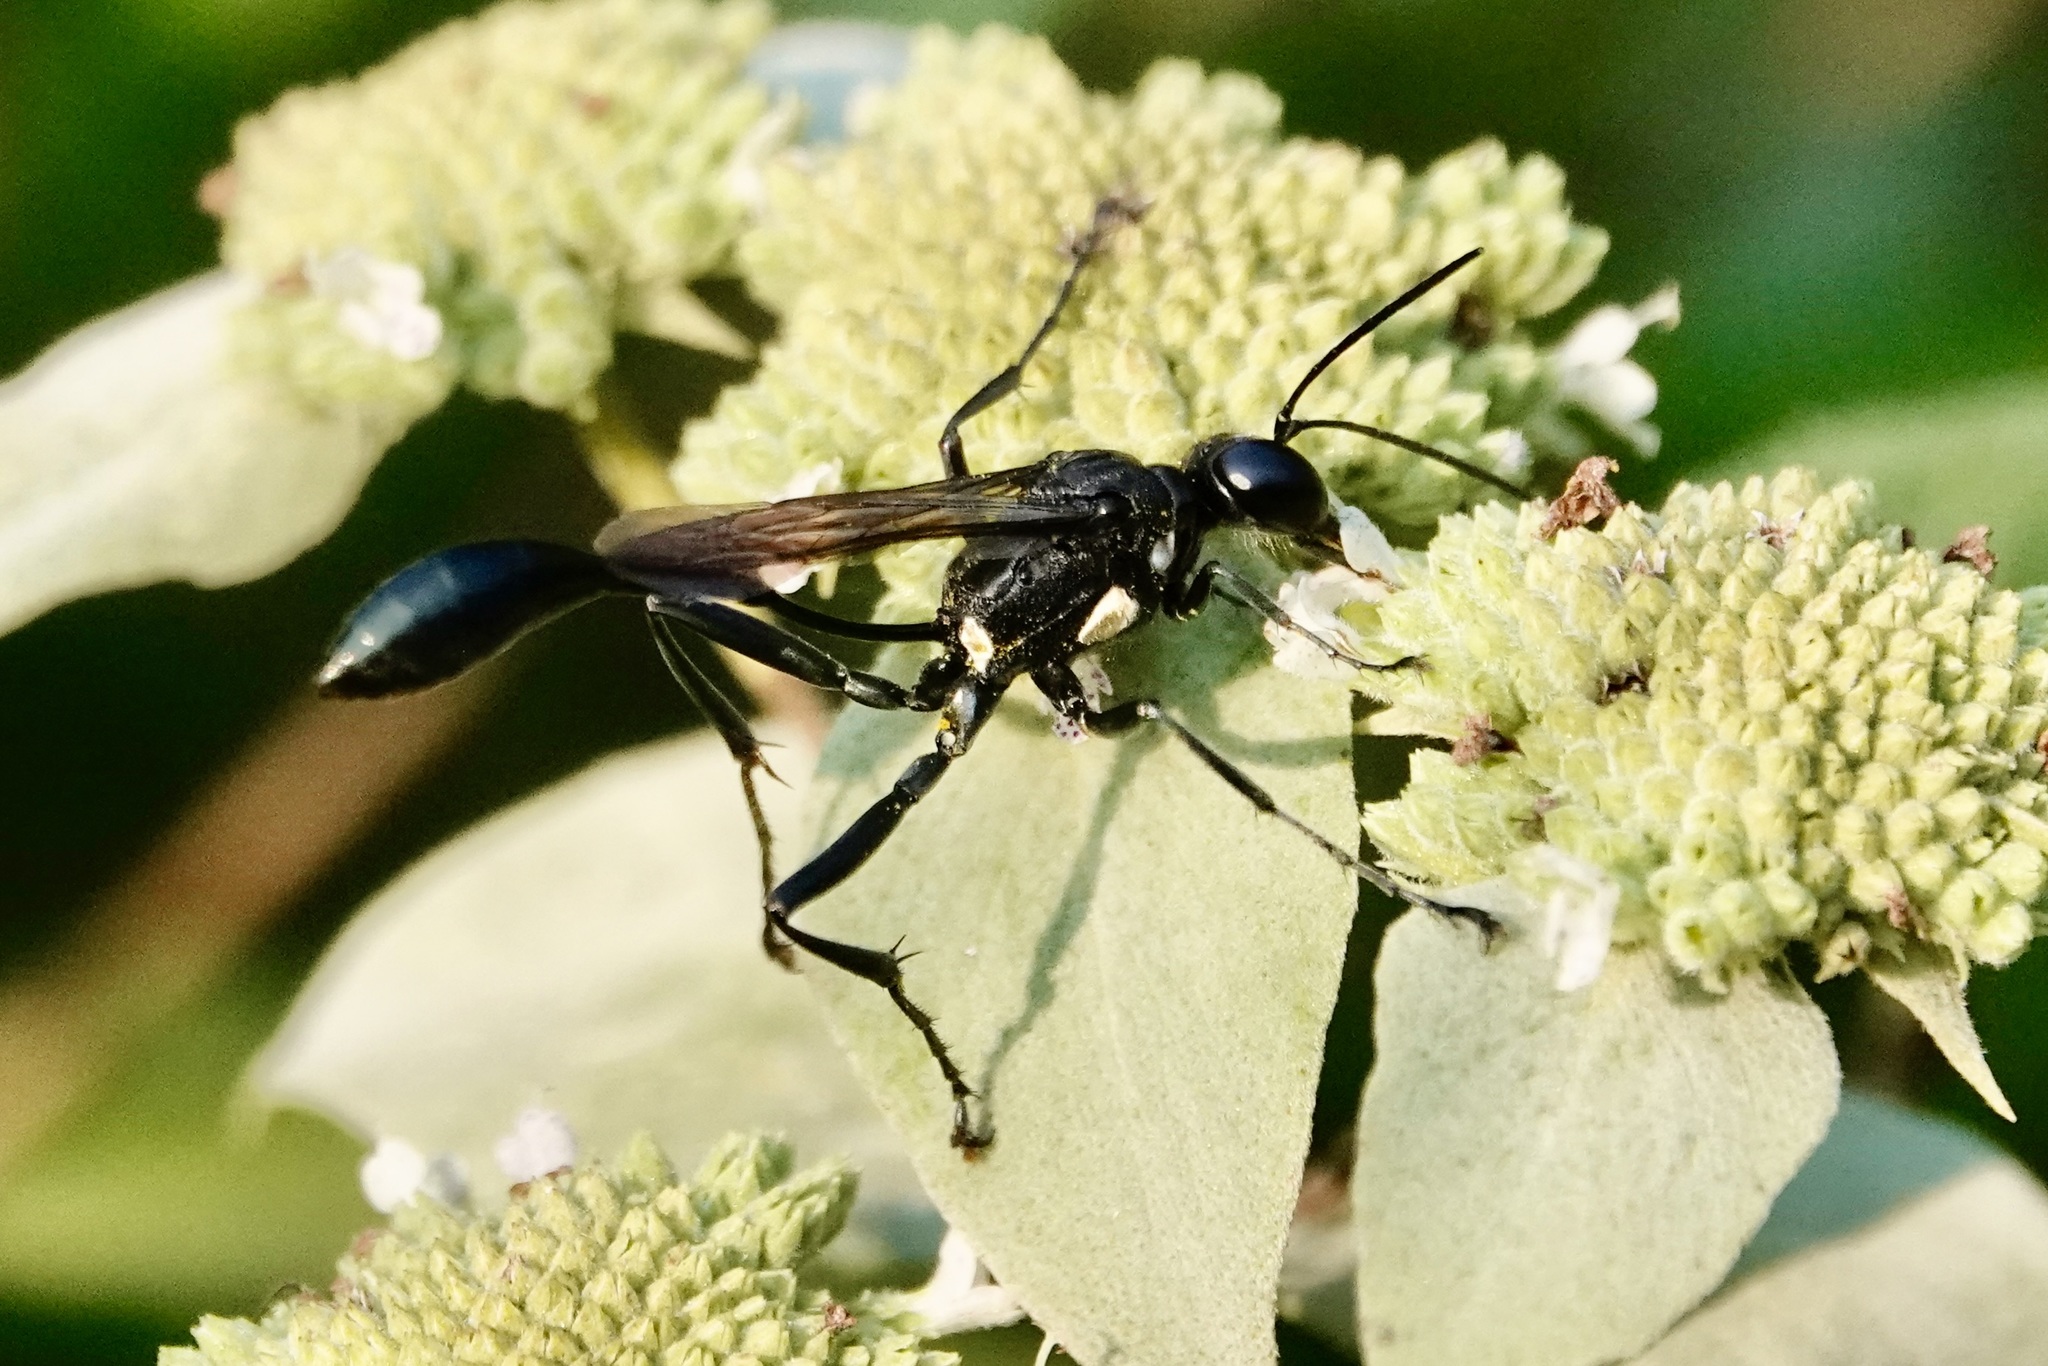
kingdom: Animalia
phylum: Arthropoda
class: Insecta
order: Hymenoptera
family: Sphecidae
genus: Eremnophila
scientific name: Eremnophila aureonotata
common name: Gold-marked thread-waisted wasp
